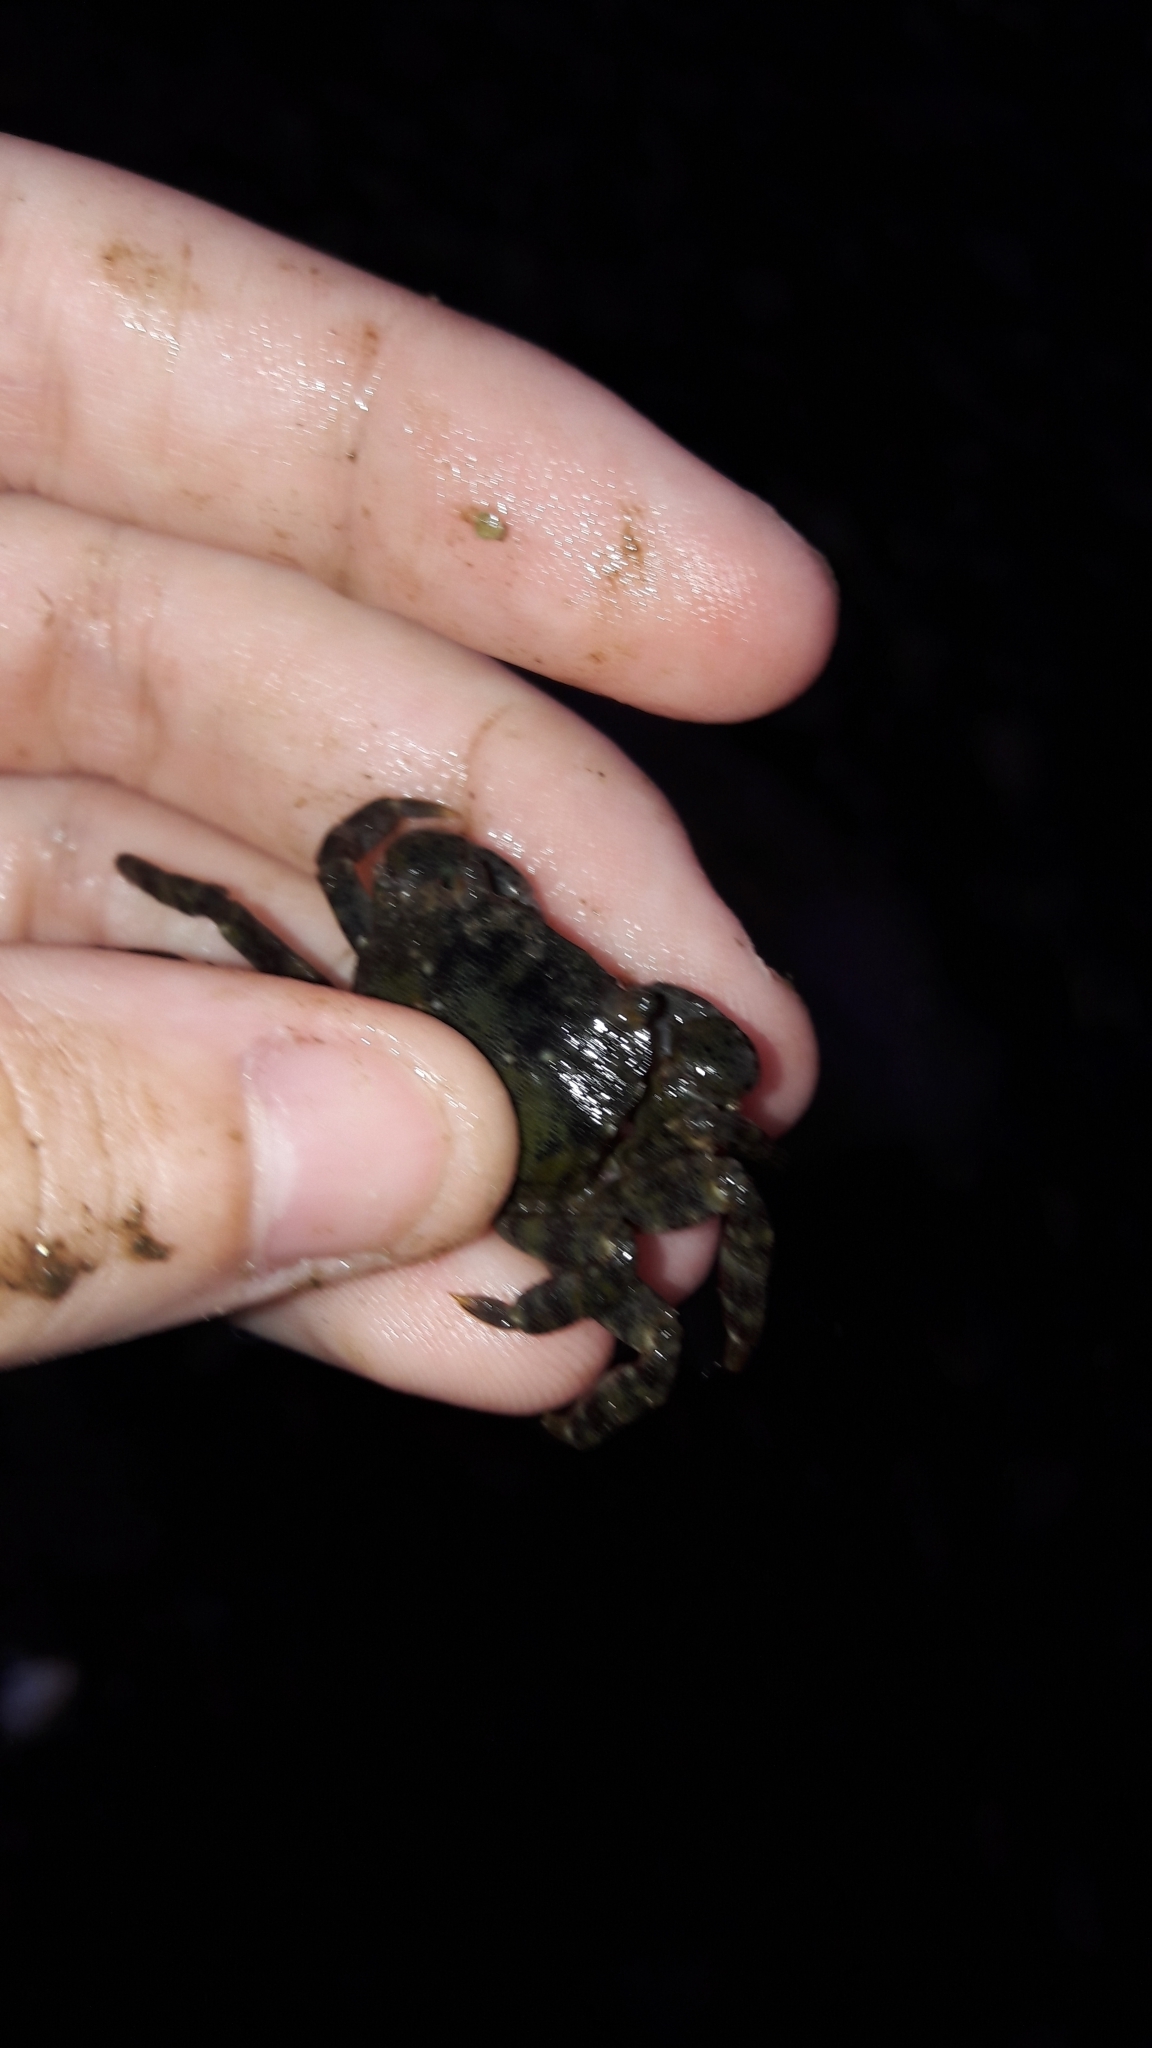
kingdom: Animalia
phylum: Arthropoda
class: Malacostraca
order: Decapoda
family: Varunidae
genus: Hemigrapsus
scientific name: Hemigrapsus sanguineus
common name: Asian shore crab
